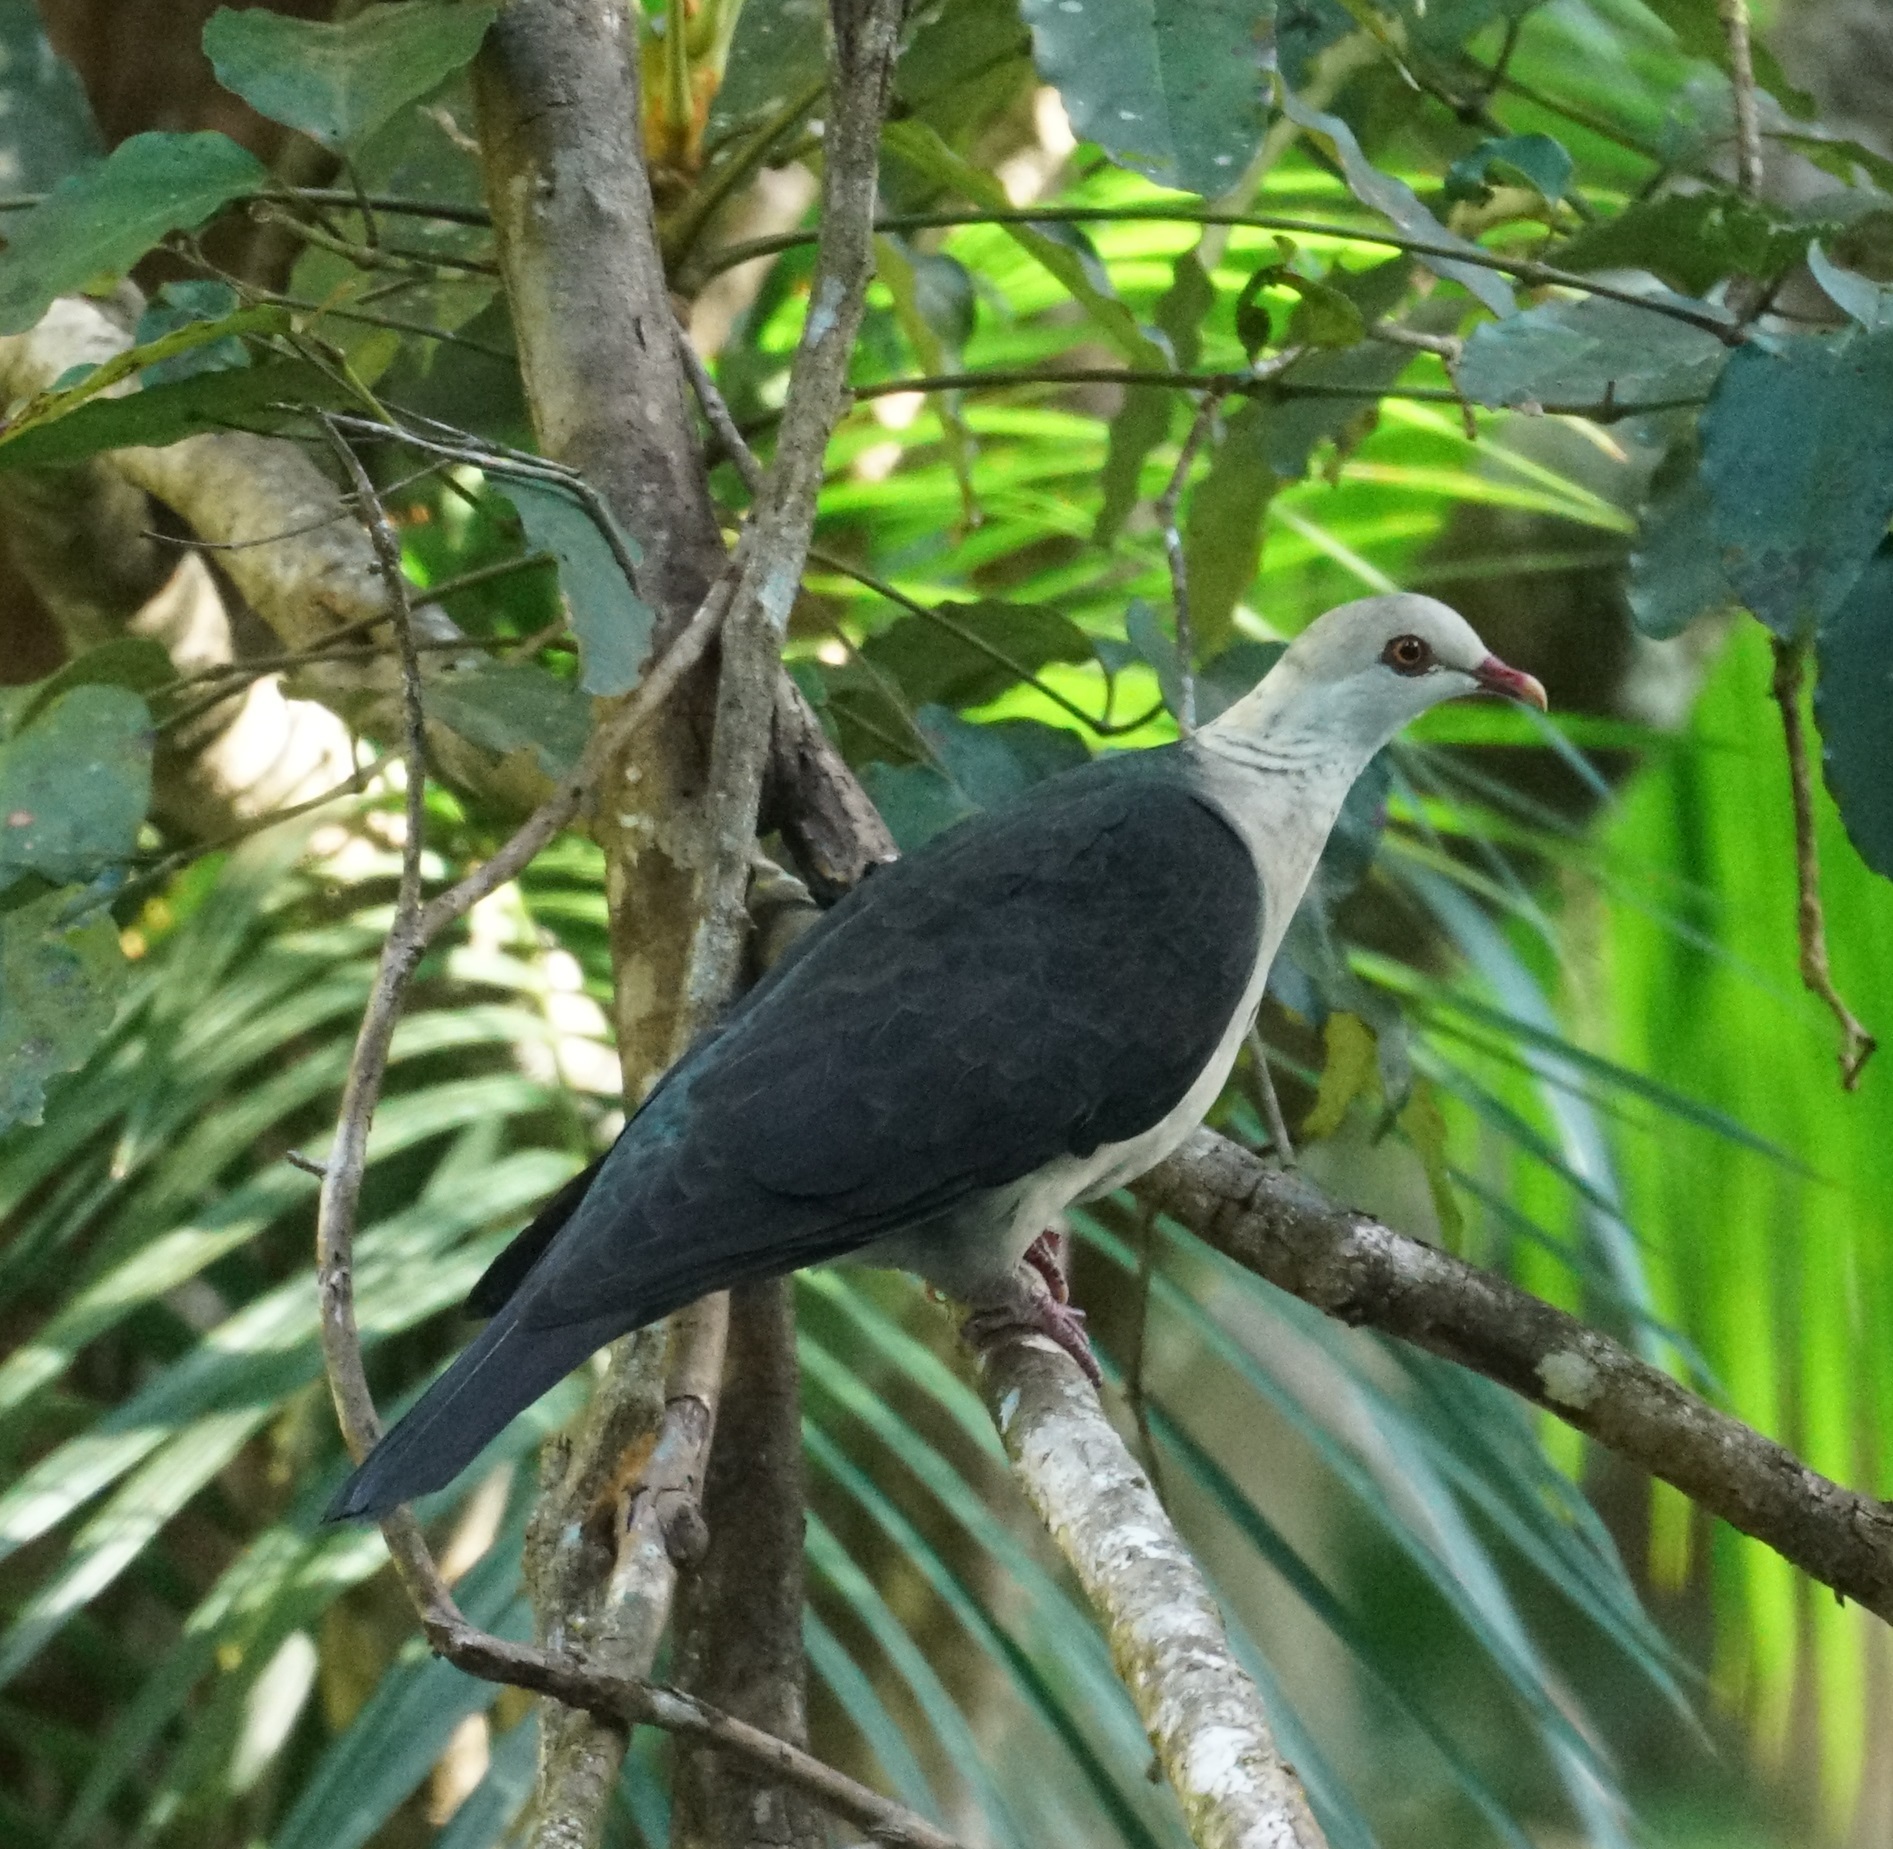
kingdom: Animalia
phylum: Chordata
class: Aves
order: Columbiformes
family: Columbidae
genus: Columba
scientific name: Columba leucomela
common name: White-headed pigeon
